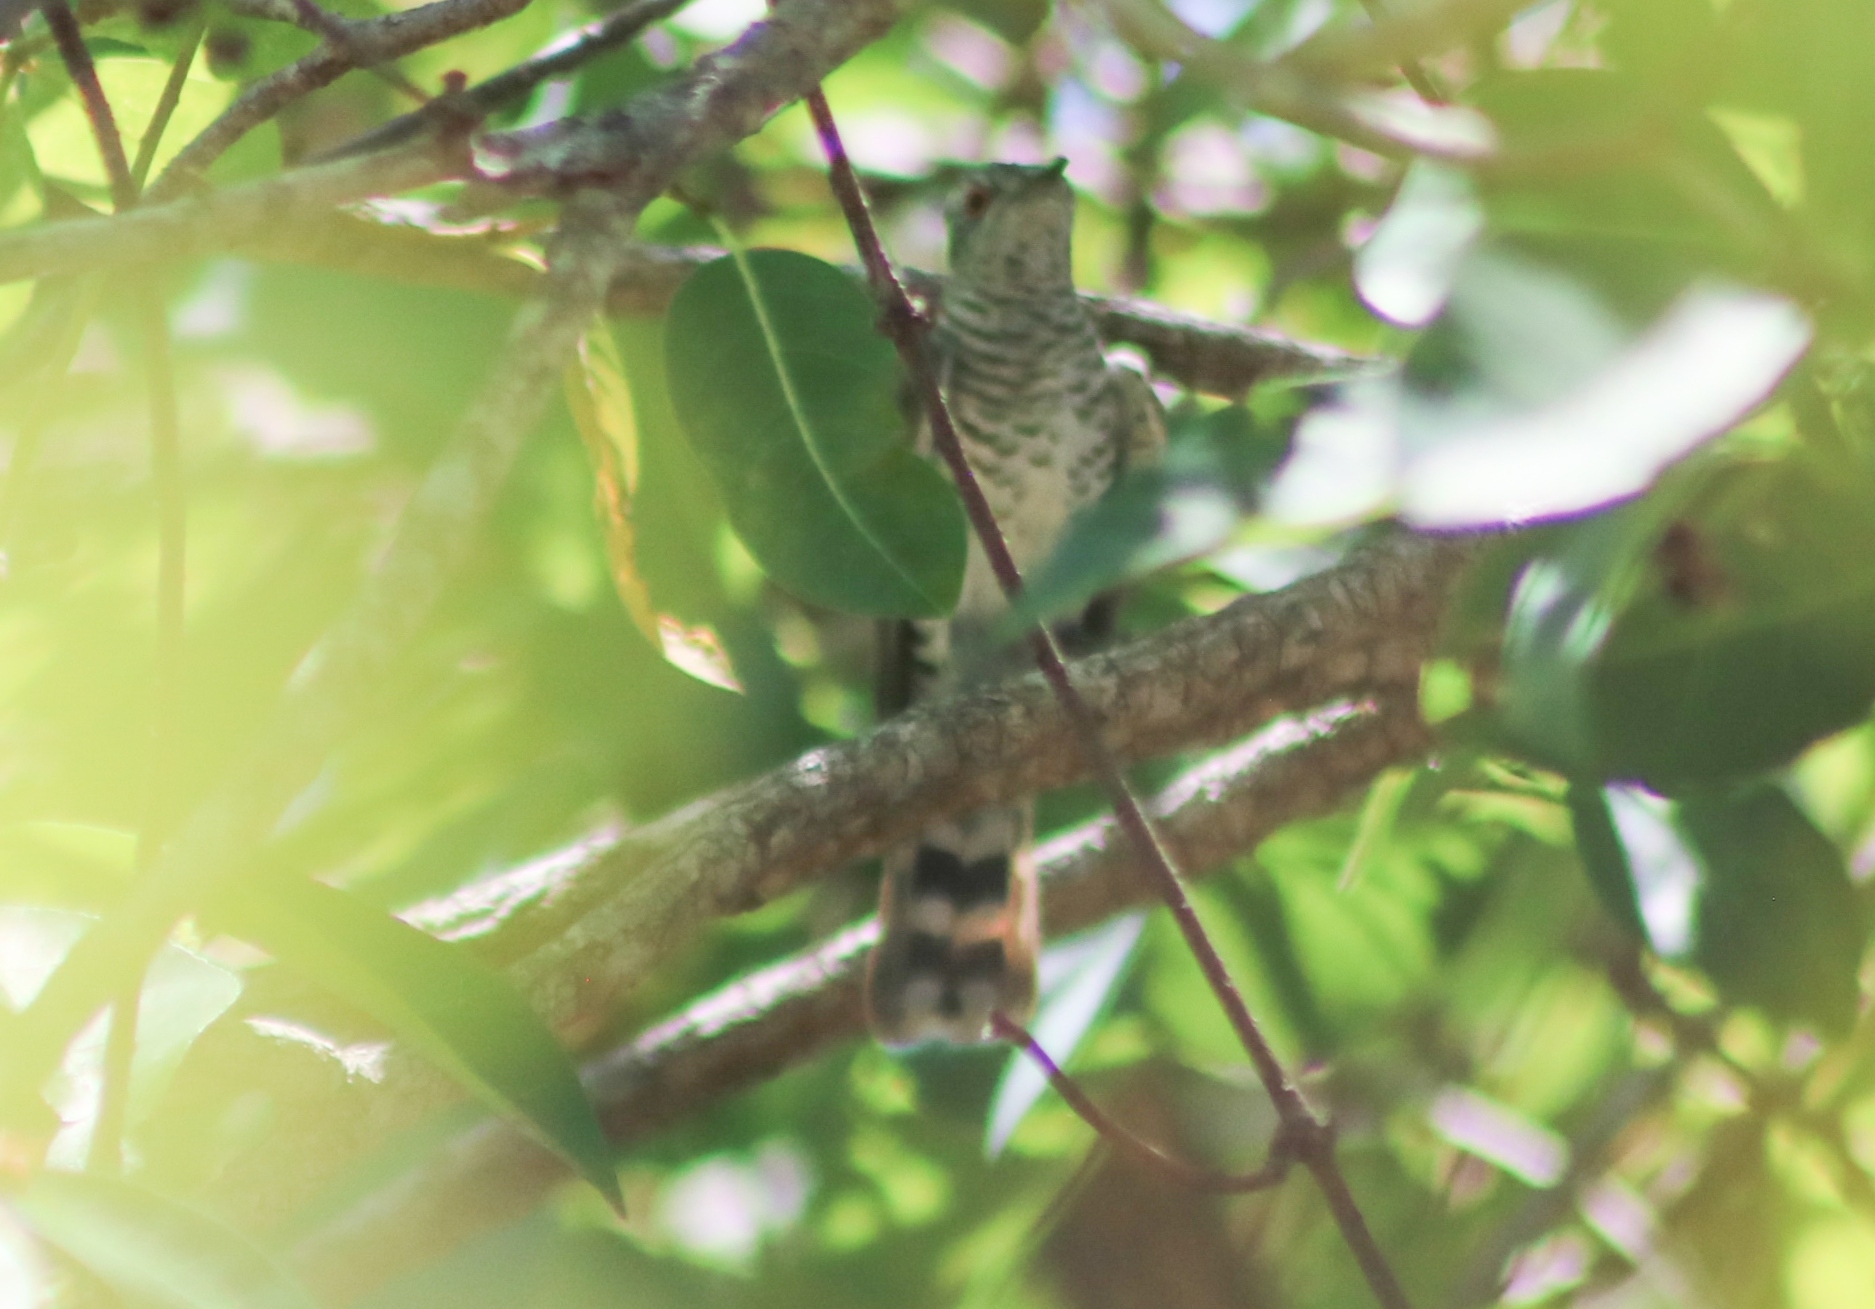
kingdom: Animalia
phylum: Chordata
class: Aves
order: Cuculiformes
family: Cuculidae
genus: Chrysococcyx
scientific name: Chrysococcyx minutillus
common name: Little bronze cuckoo
